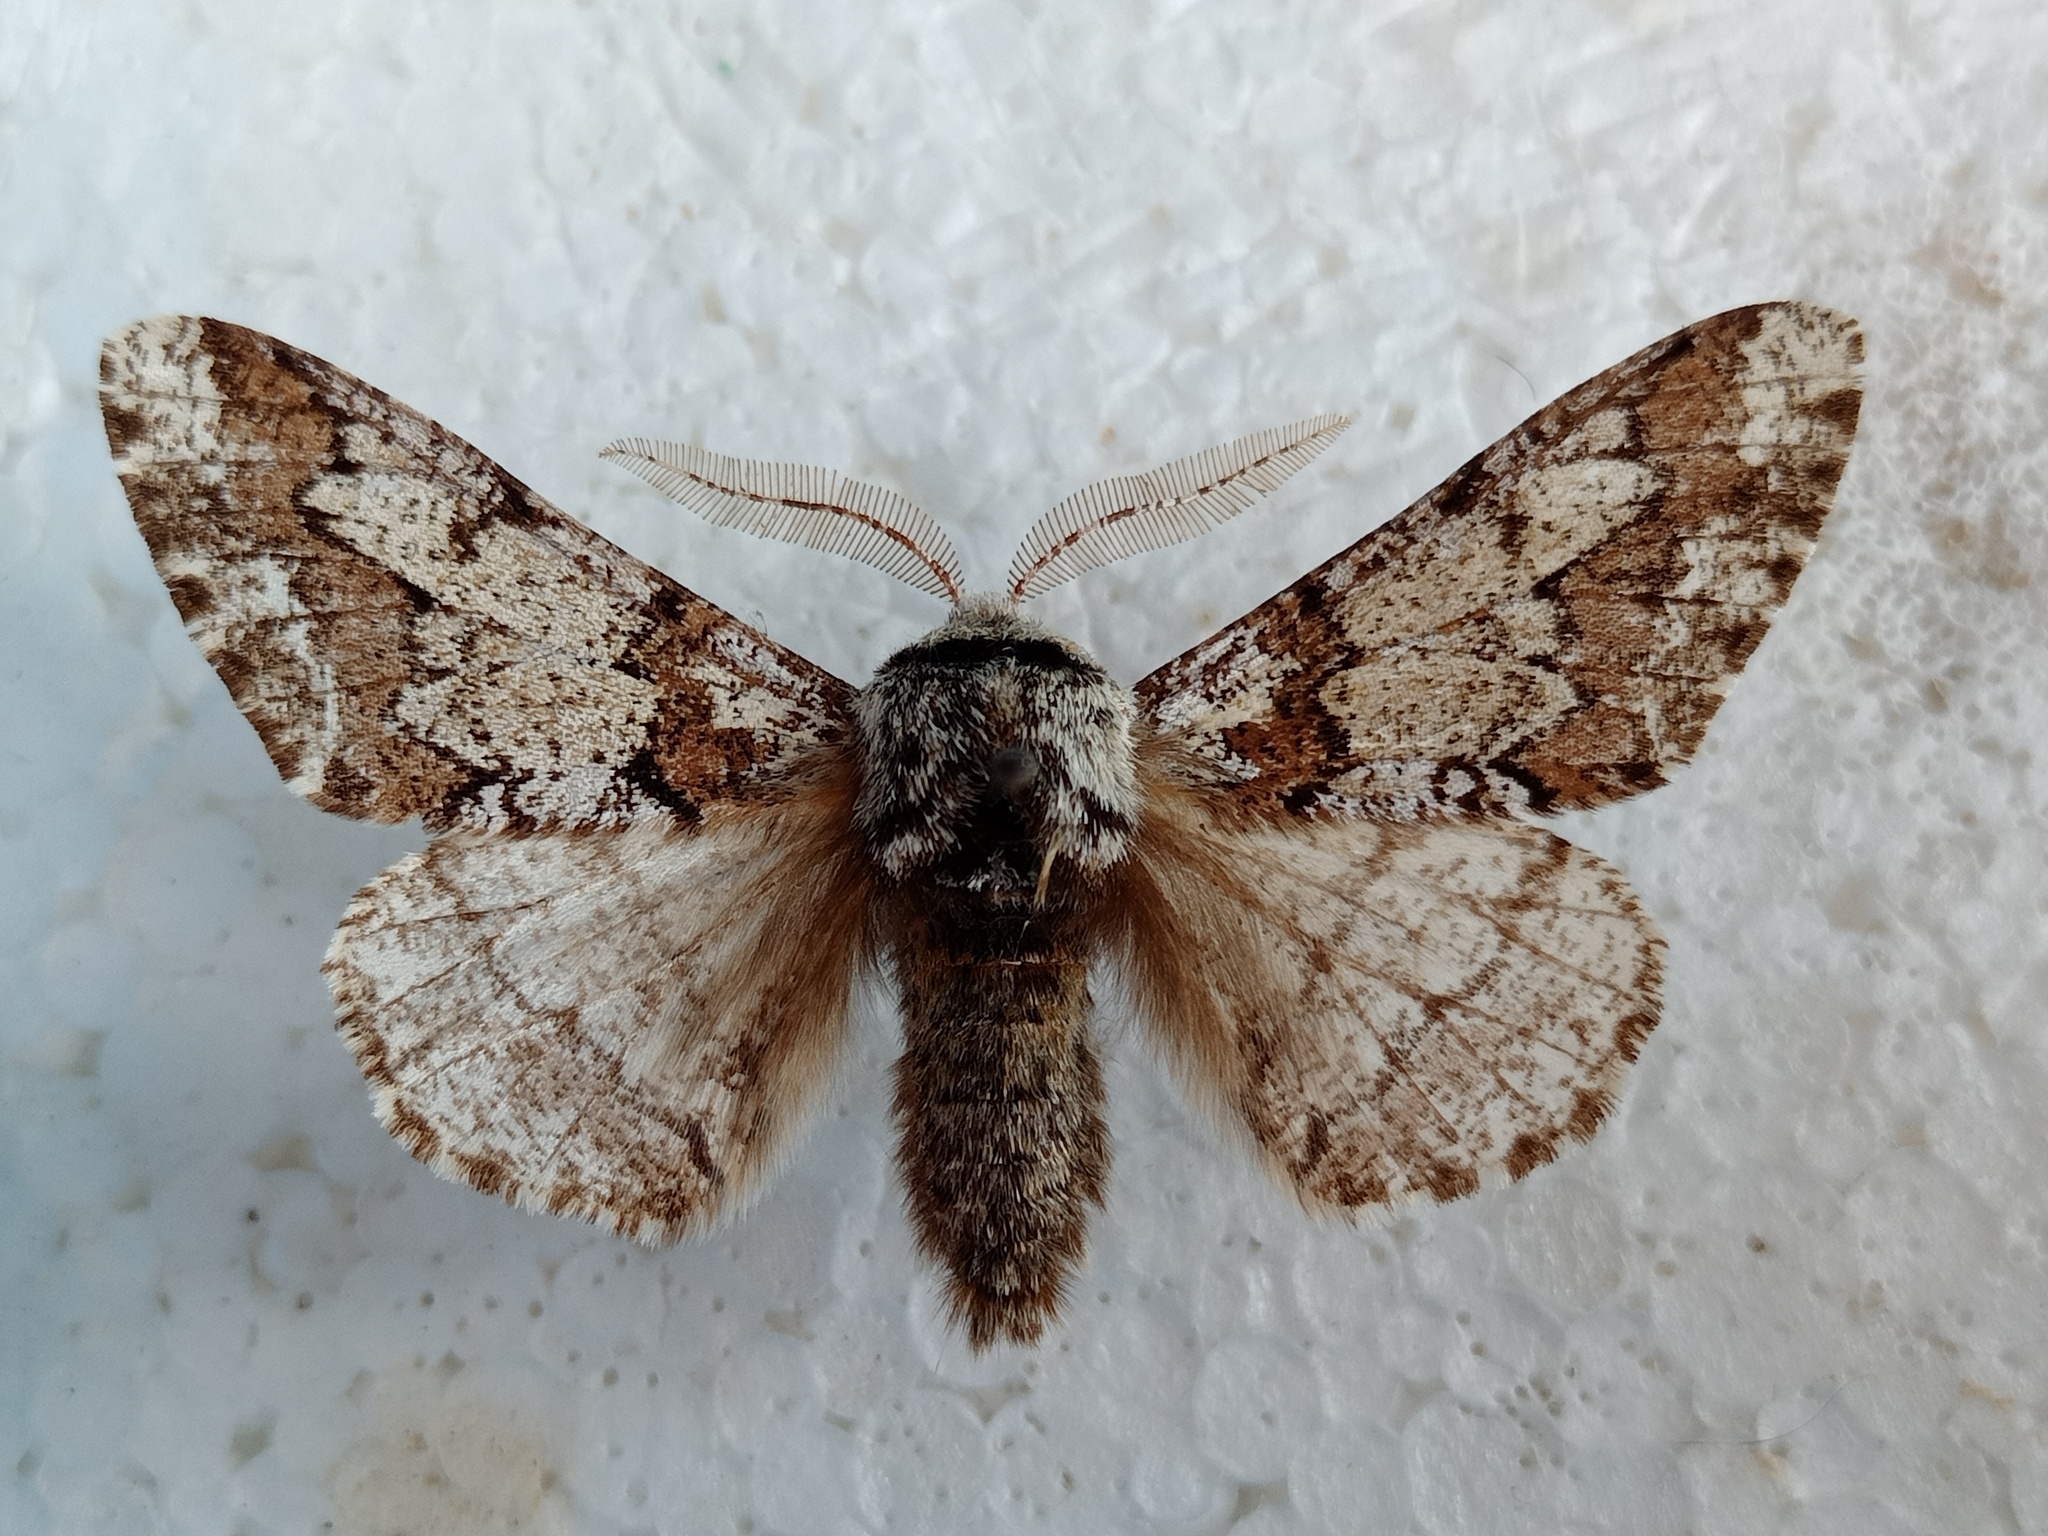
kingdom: Animalia
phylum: Arthropoda
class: Insecta
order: Lepidoptera
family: Geometridae
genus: Biston
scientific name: Biston strataria
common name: Oak beauty
